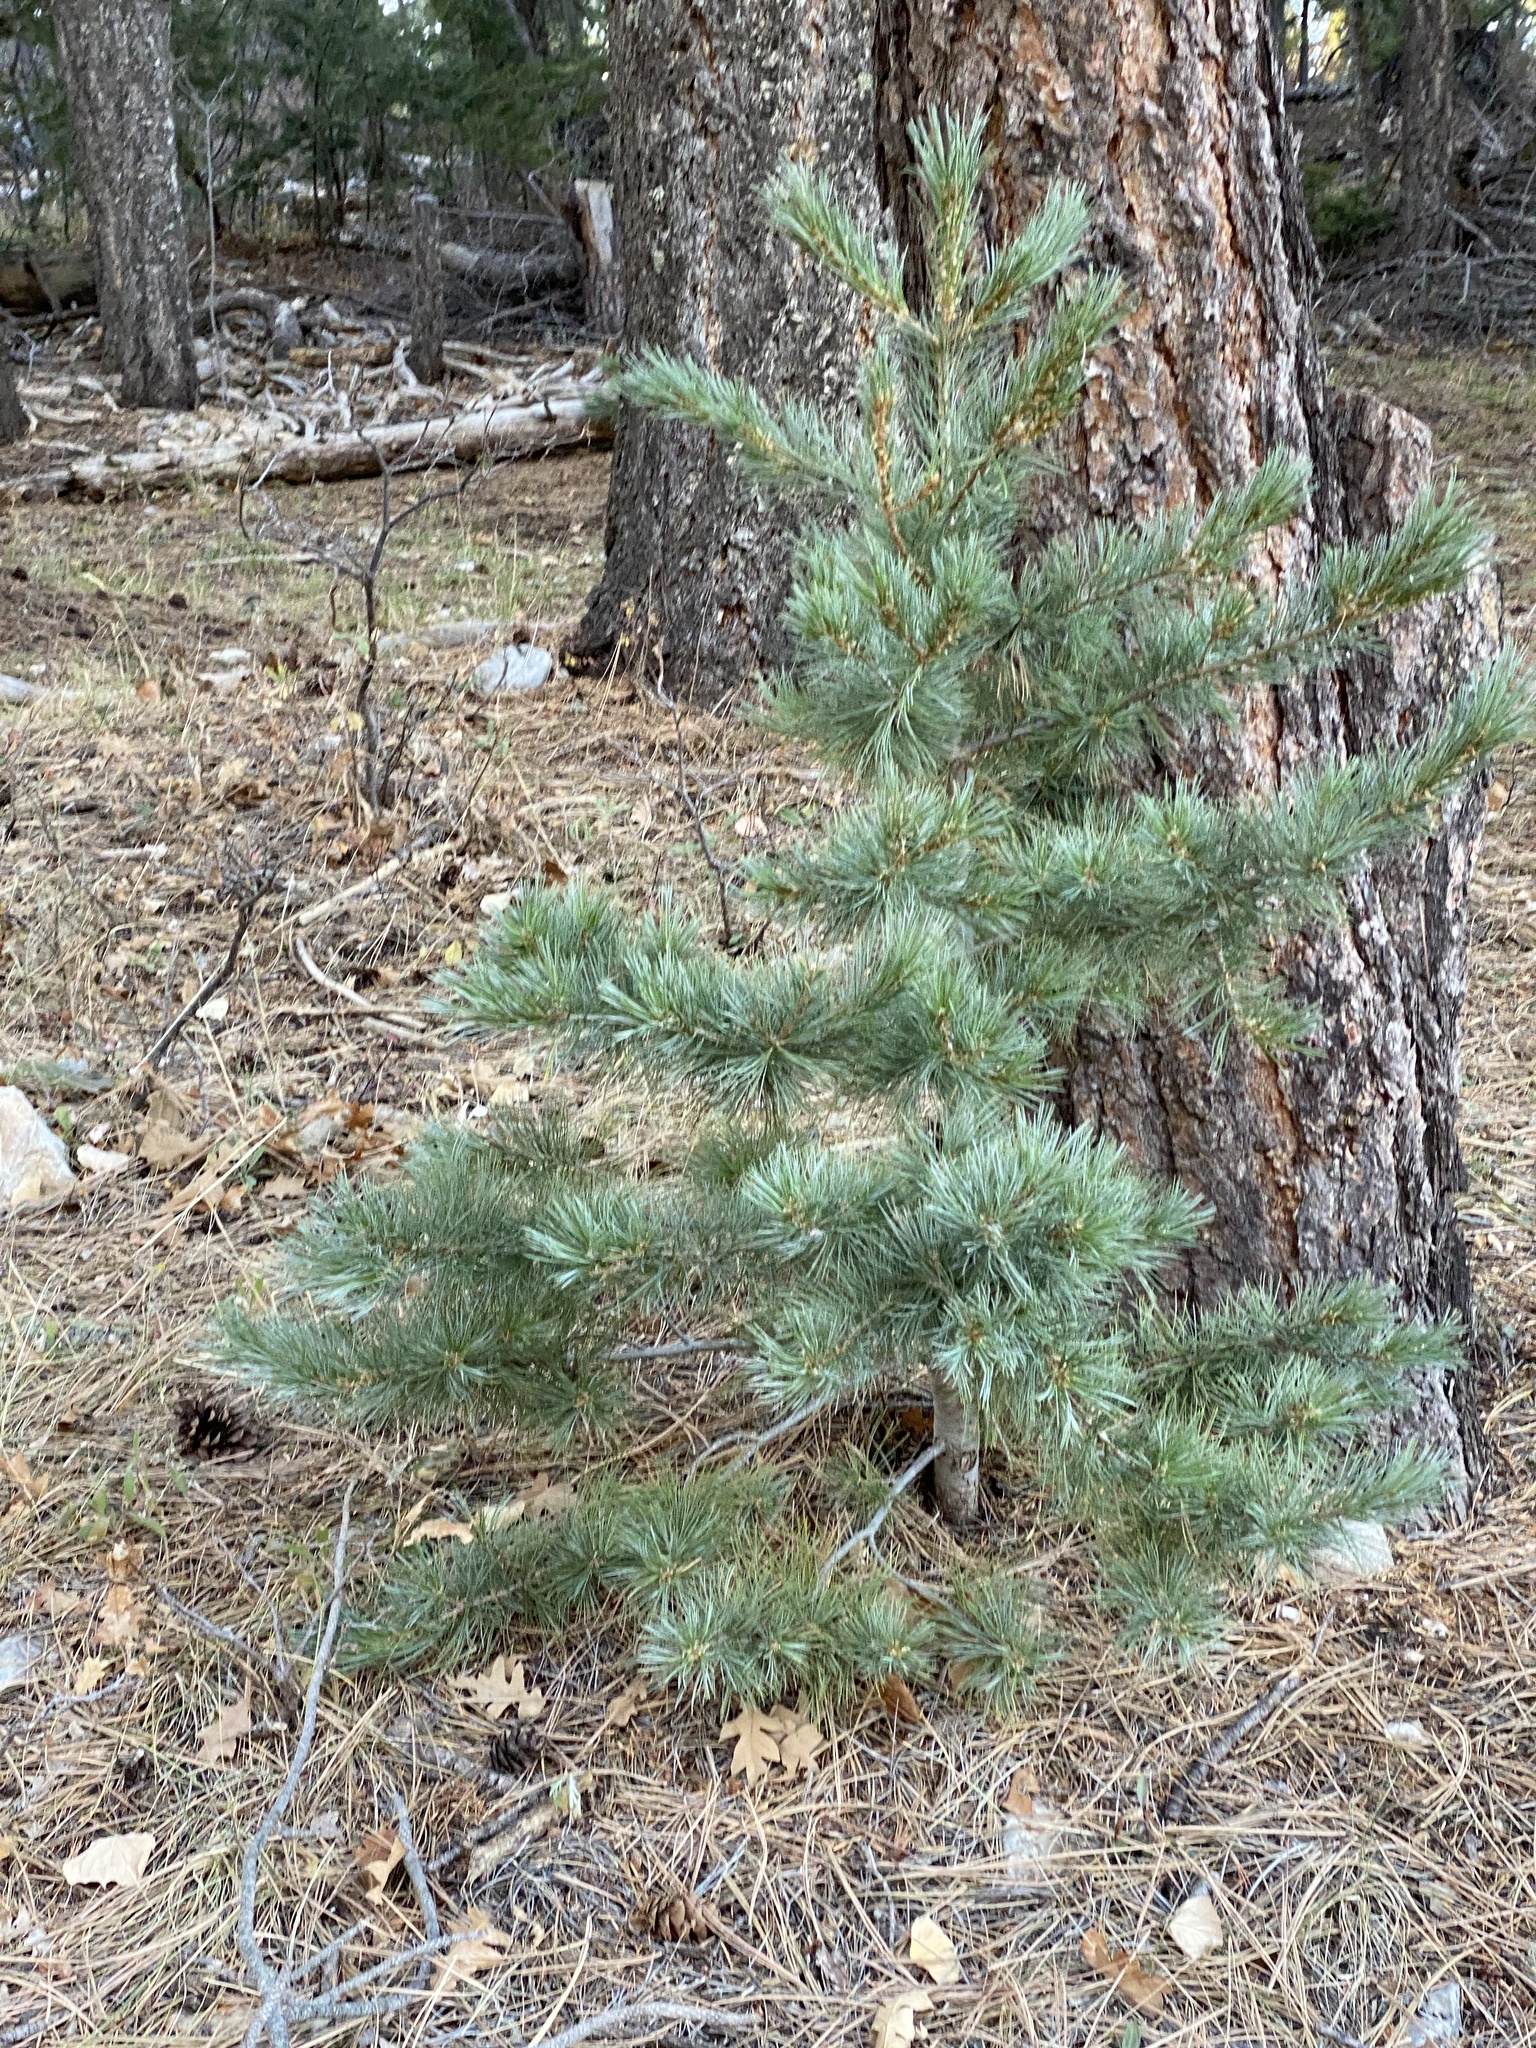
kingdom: Plantae
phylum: Tracheophyta
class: Pinopsida
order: Pinales
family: Pinaceae
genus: Pinus
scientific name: Pinus strobiformis
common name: Southwestern white pine
